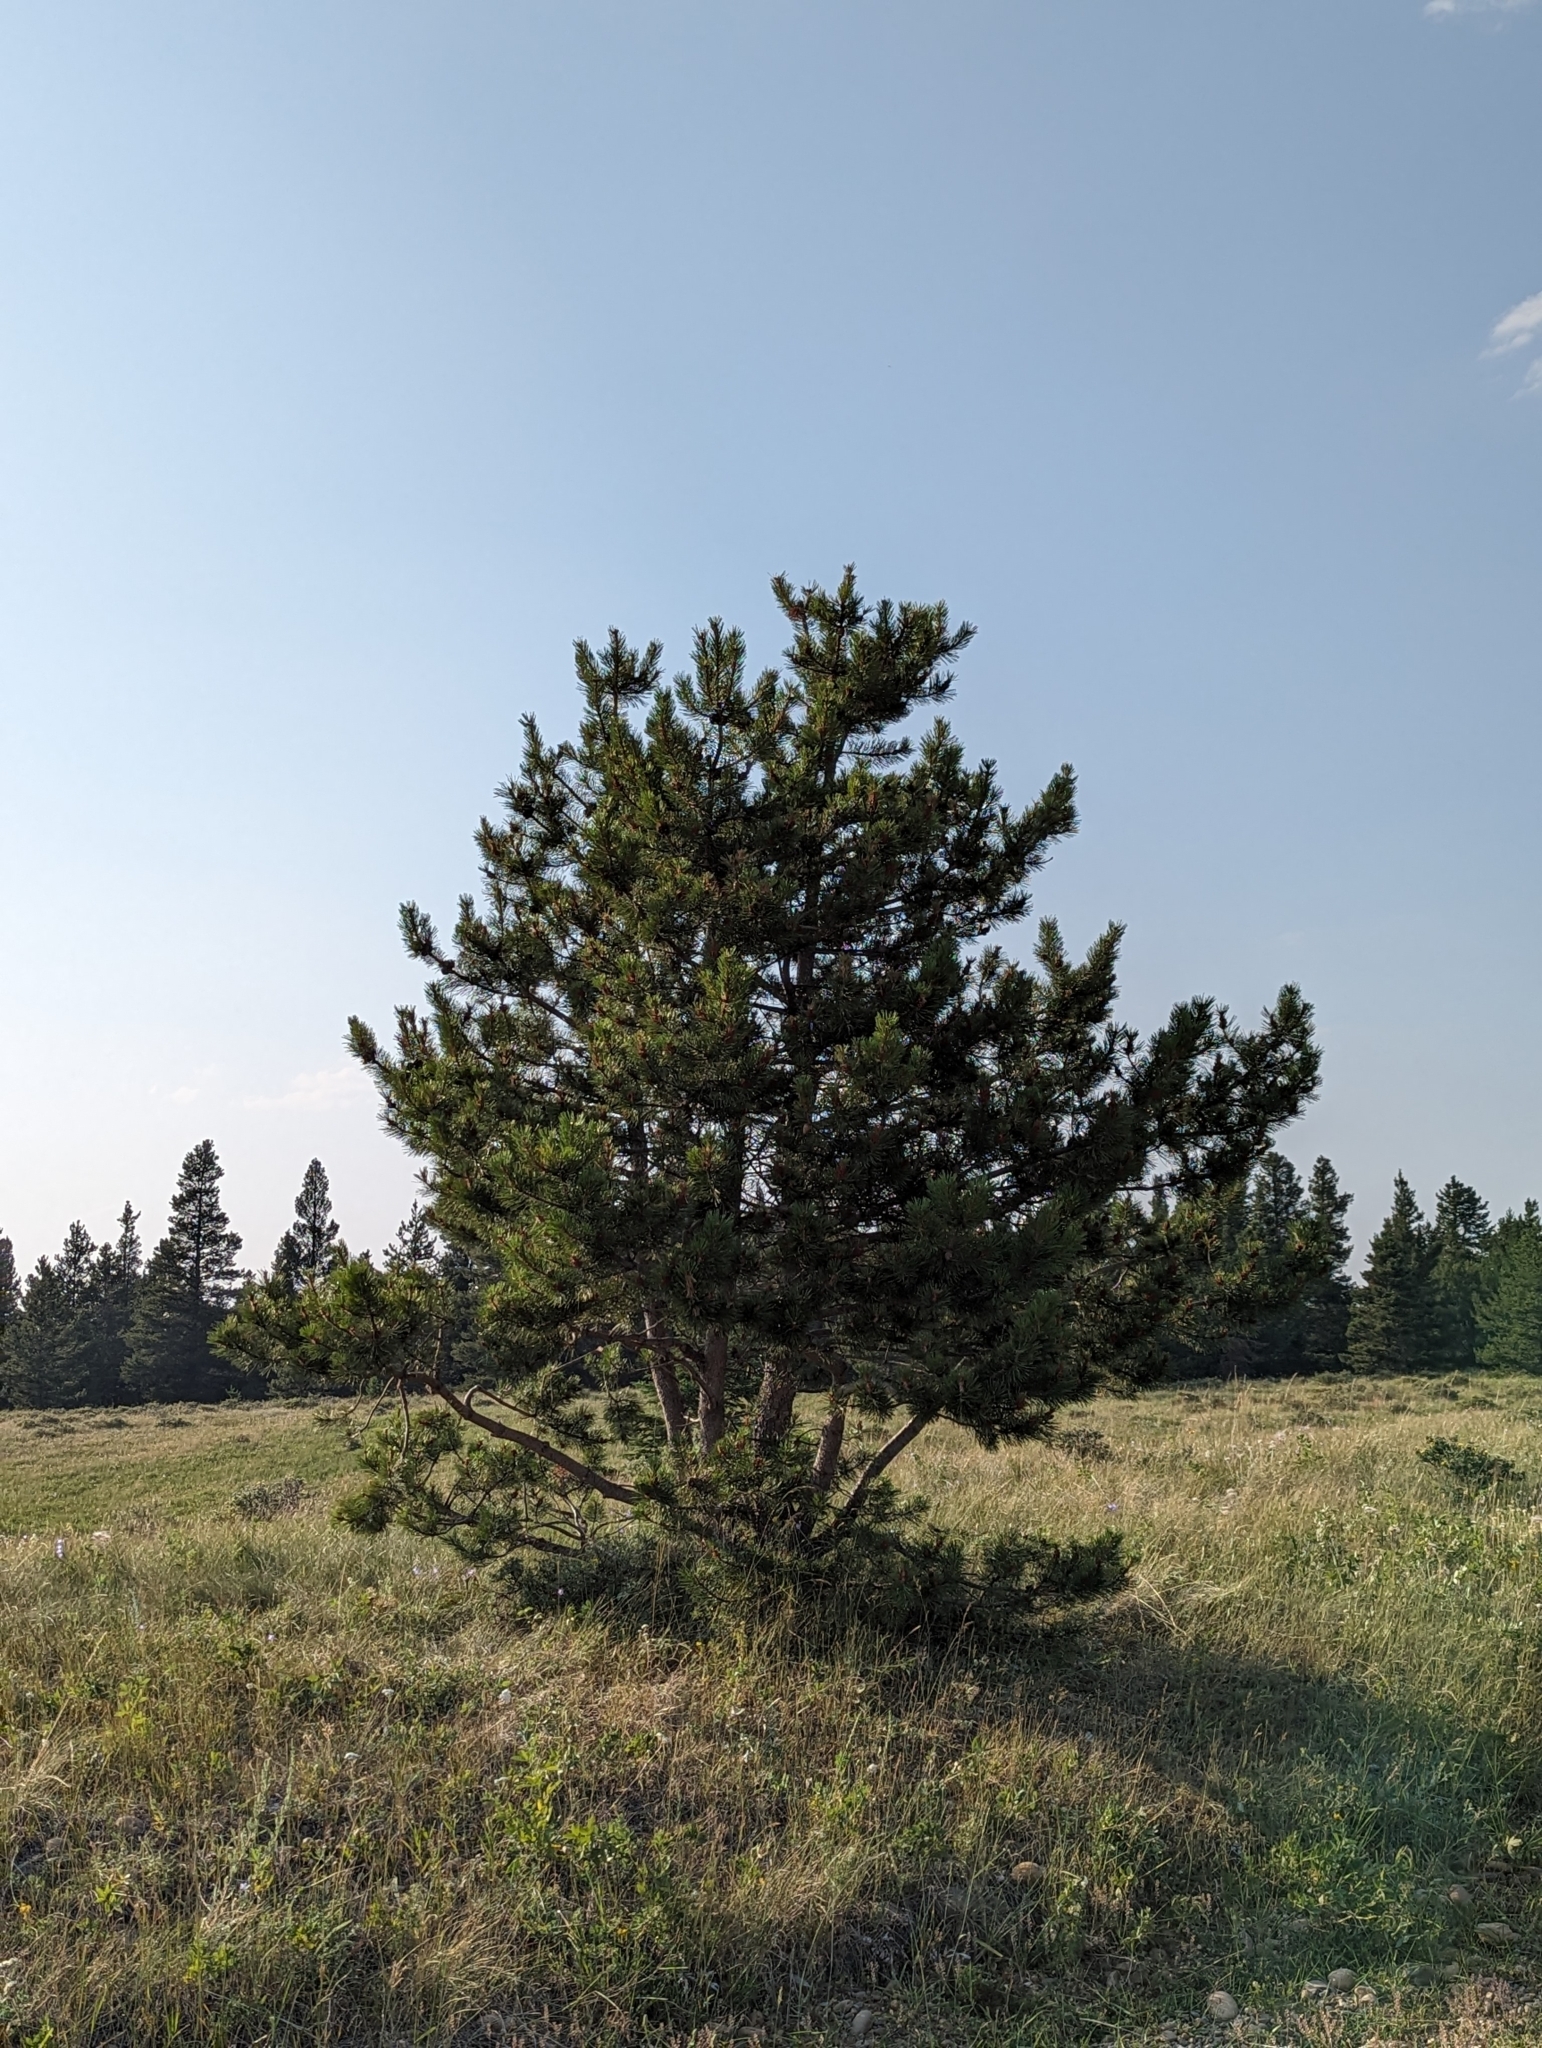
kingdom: Plantae
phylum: Tracheophyta
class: Pinopsida
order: Pinales
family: Pinaceae
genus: Pinus
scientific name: Pinus contorta
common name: Lodgepole pine
